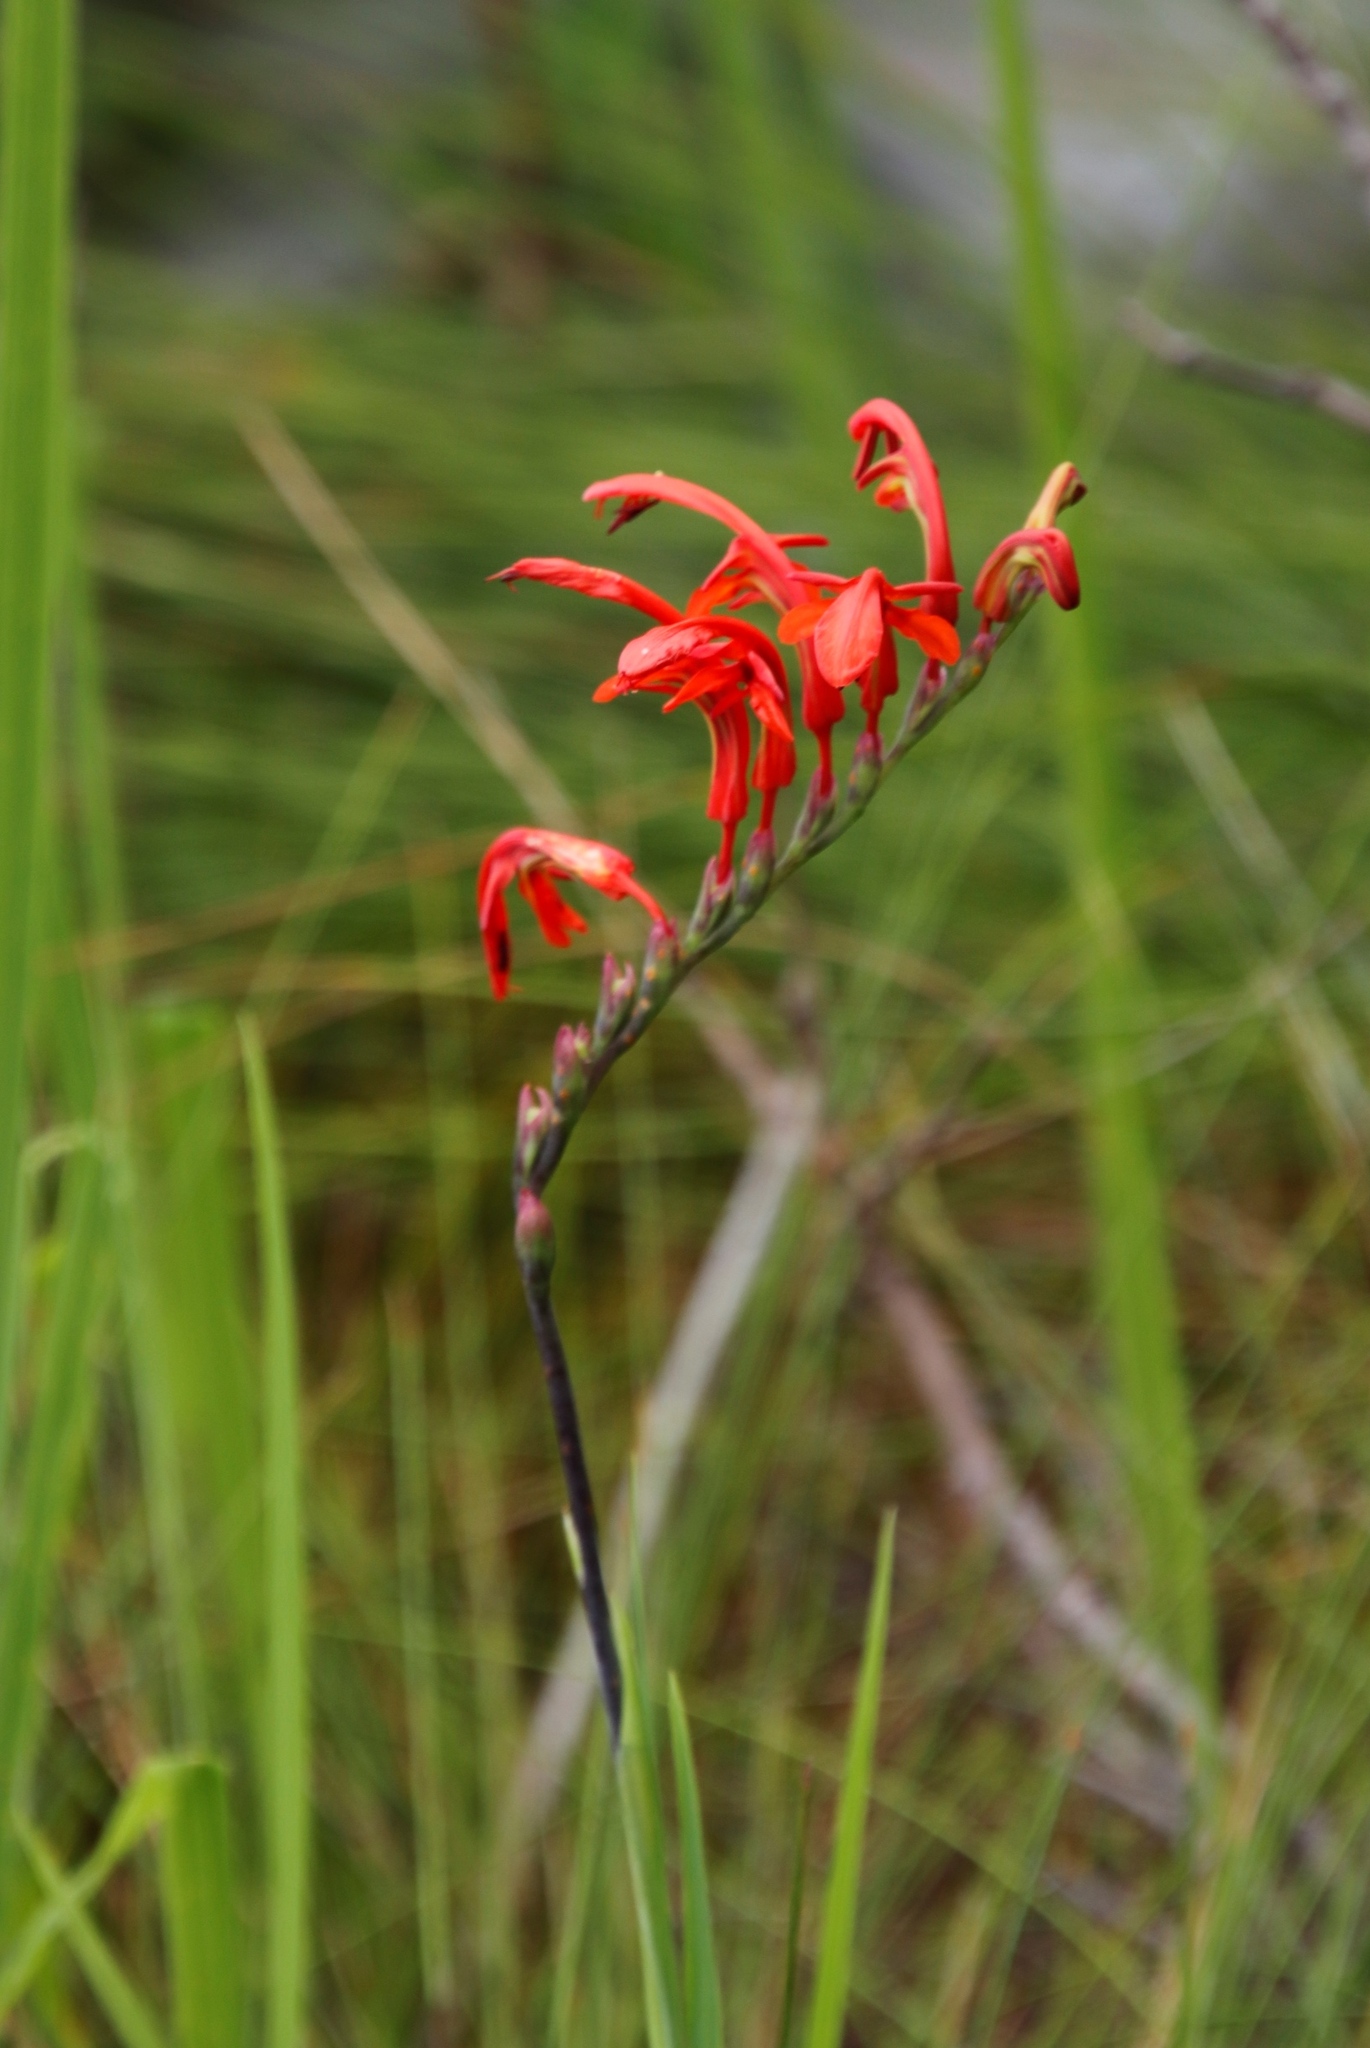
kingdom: Plantae
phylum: Tracheophyta
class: Liliopsida
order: Asparagales
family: Iridaceae
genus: Chasmanthe
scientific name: Chasmanthe aethiopica
